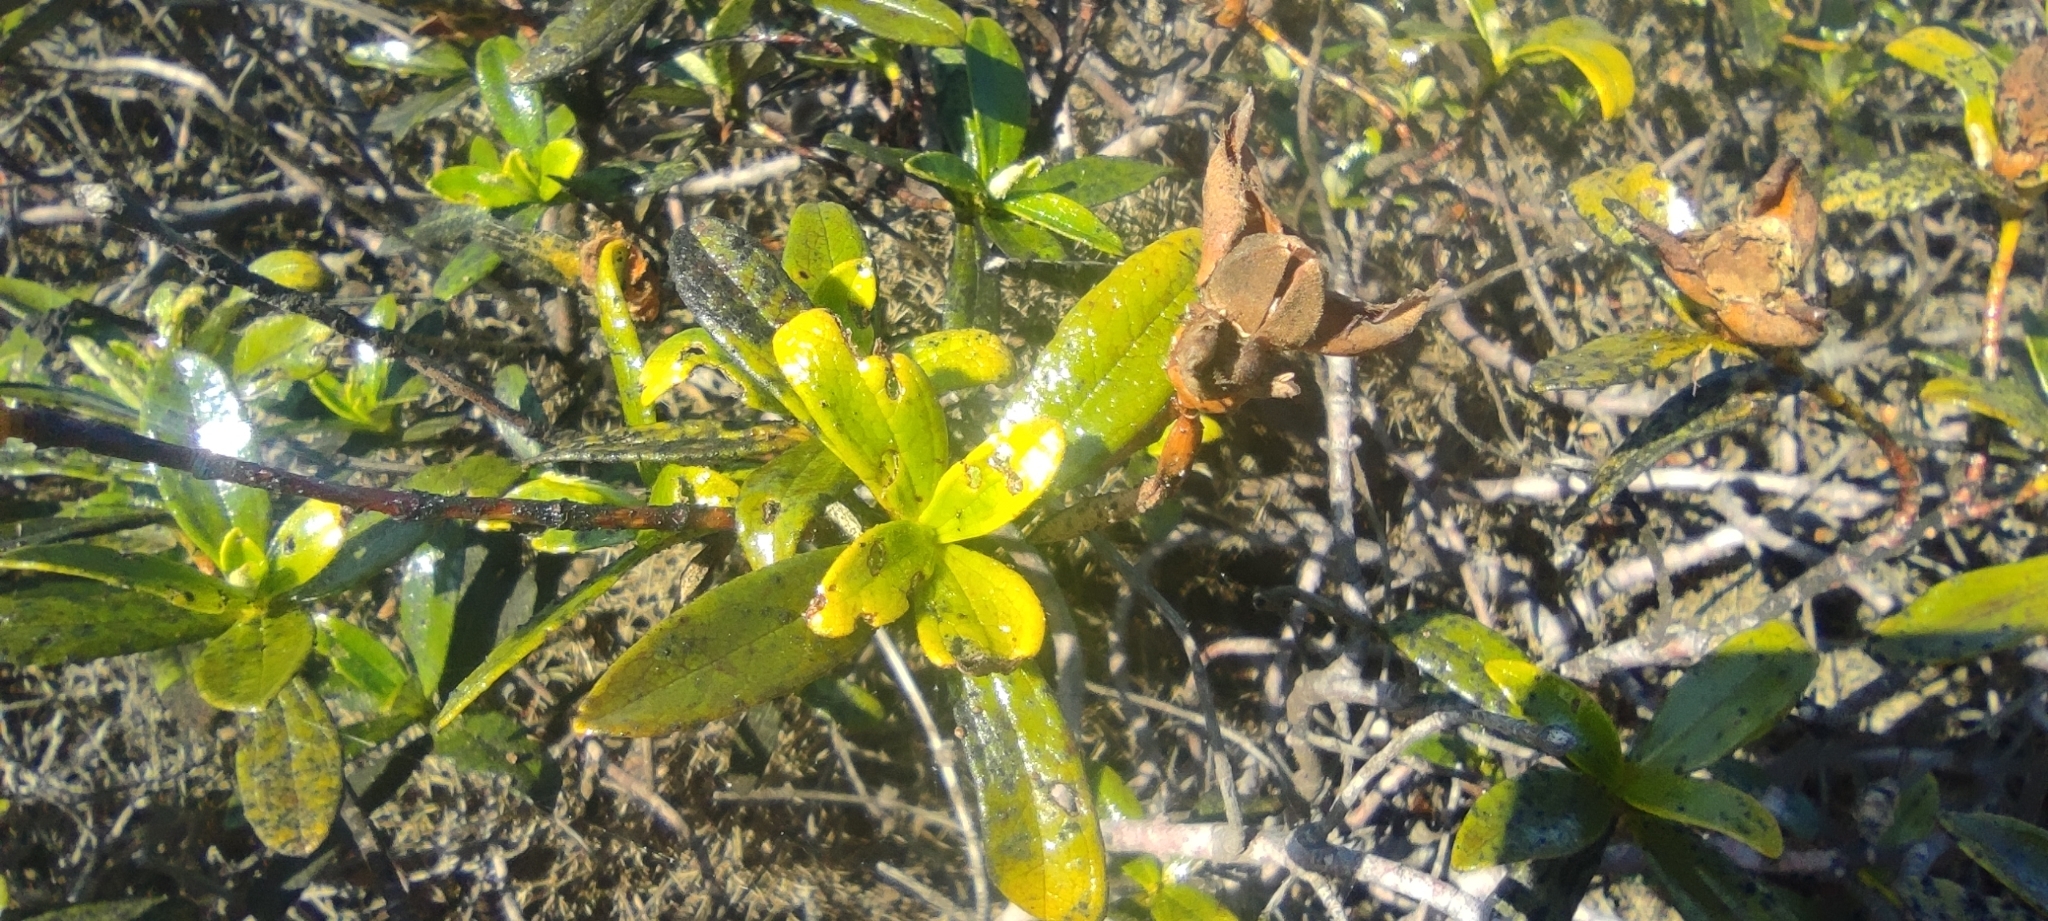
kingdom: Plantae
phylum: Tracheophyta
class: Magnoliopsida
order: Malvales
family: Cistaceae
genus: Cistus
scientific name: Cistus ladanifer
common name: Common gum cistus
